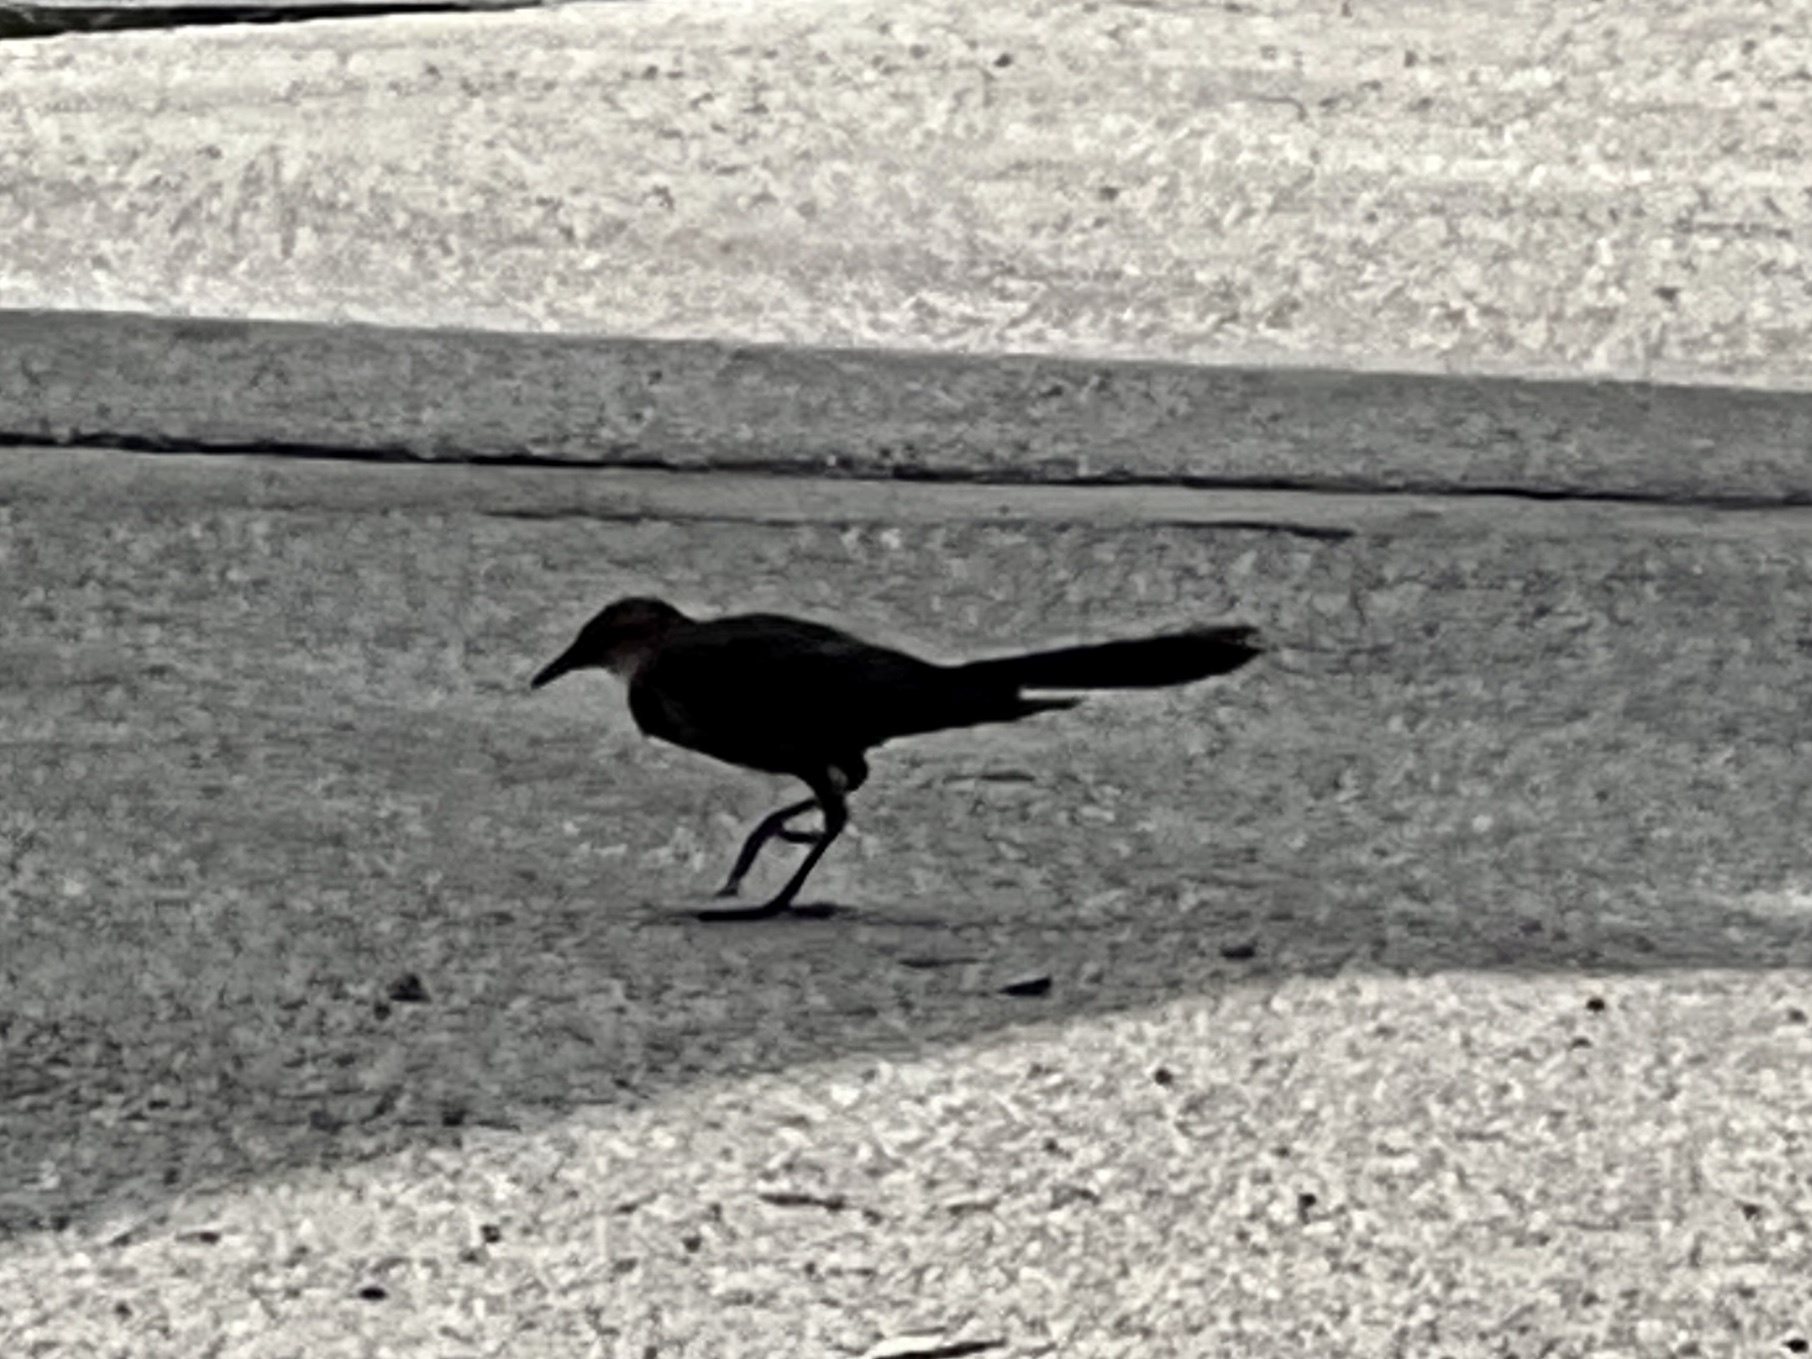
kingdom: Animalia
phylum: Chordata
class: Aves
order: Passeriformes
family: Icteridae
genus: Quiscalus
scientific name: Quiscalus mexicanus
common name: Great-tailed grackle
